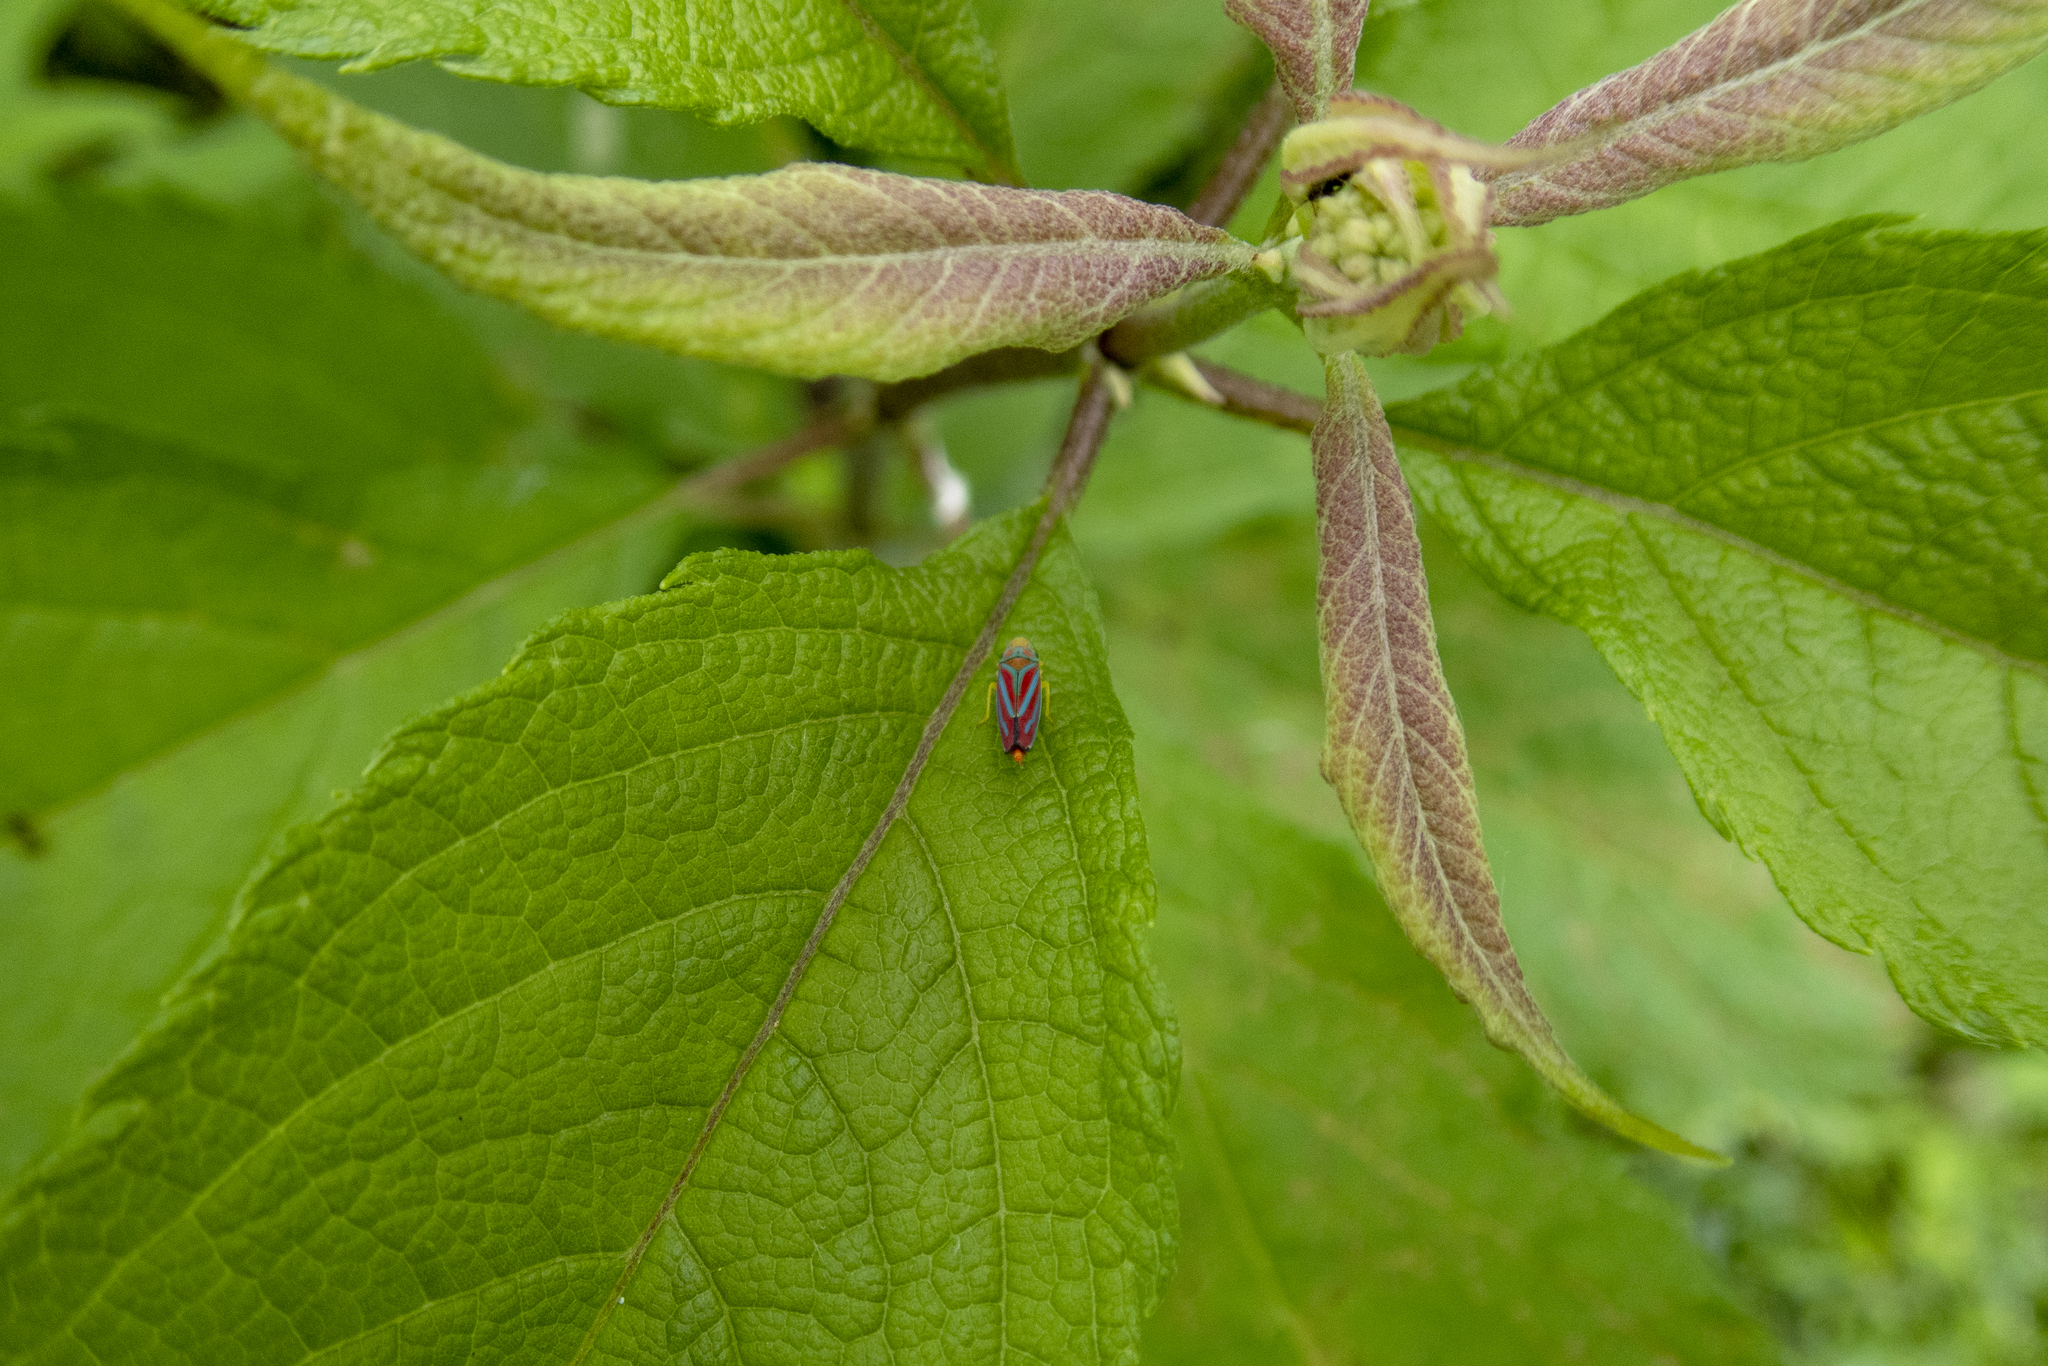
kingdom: Animalia
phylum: Arthropoda
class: Insecta
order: Hemiptera
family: Cicadellidae
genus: Graphocephala
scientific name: Graphocephala coccinea
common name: Candy-striped leafhopper
